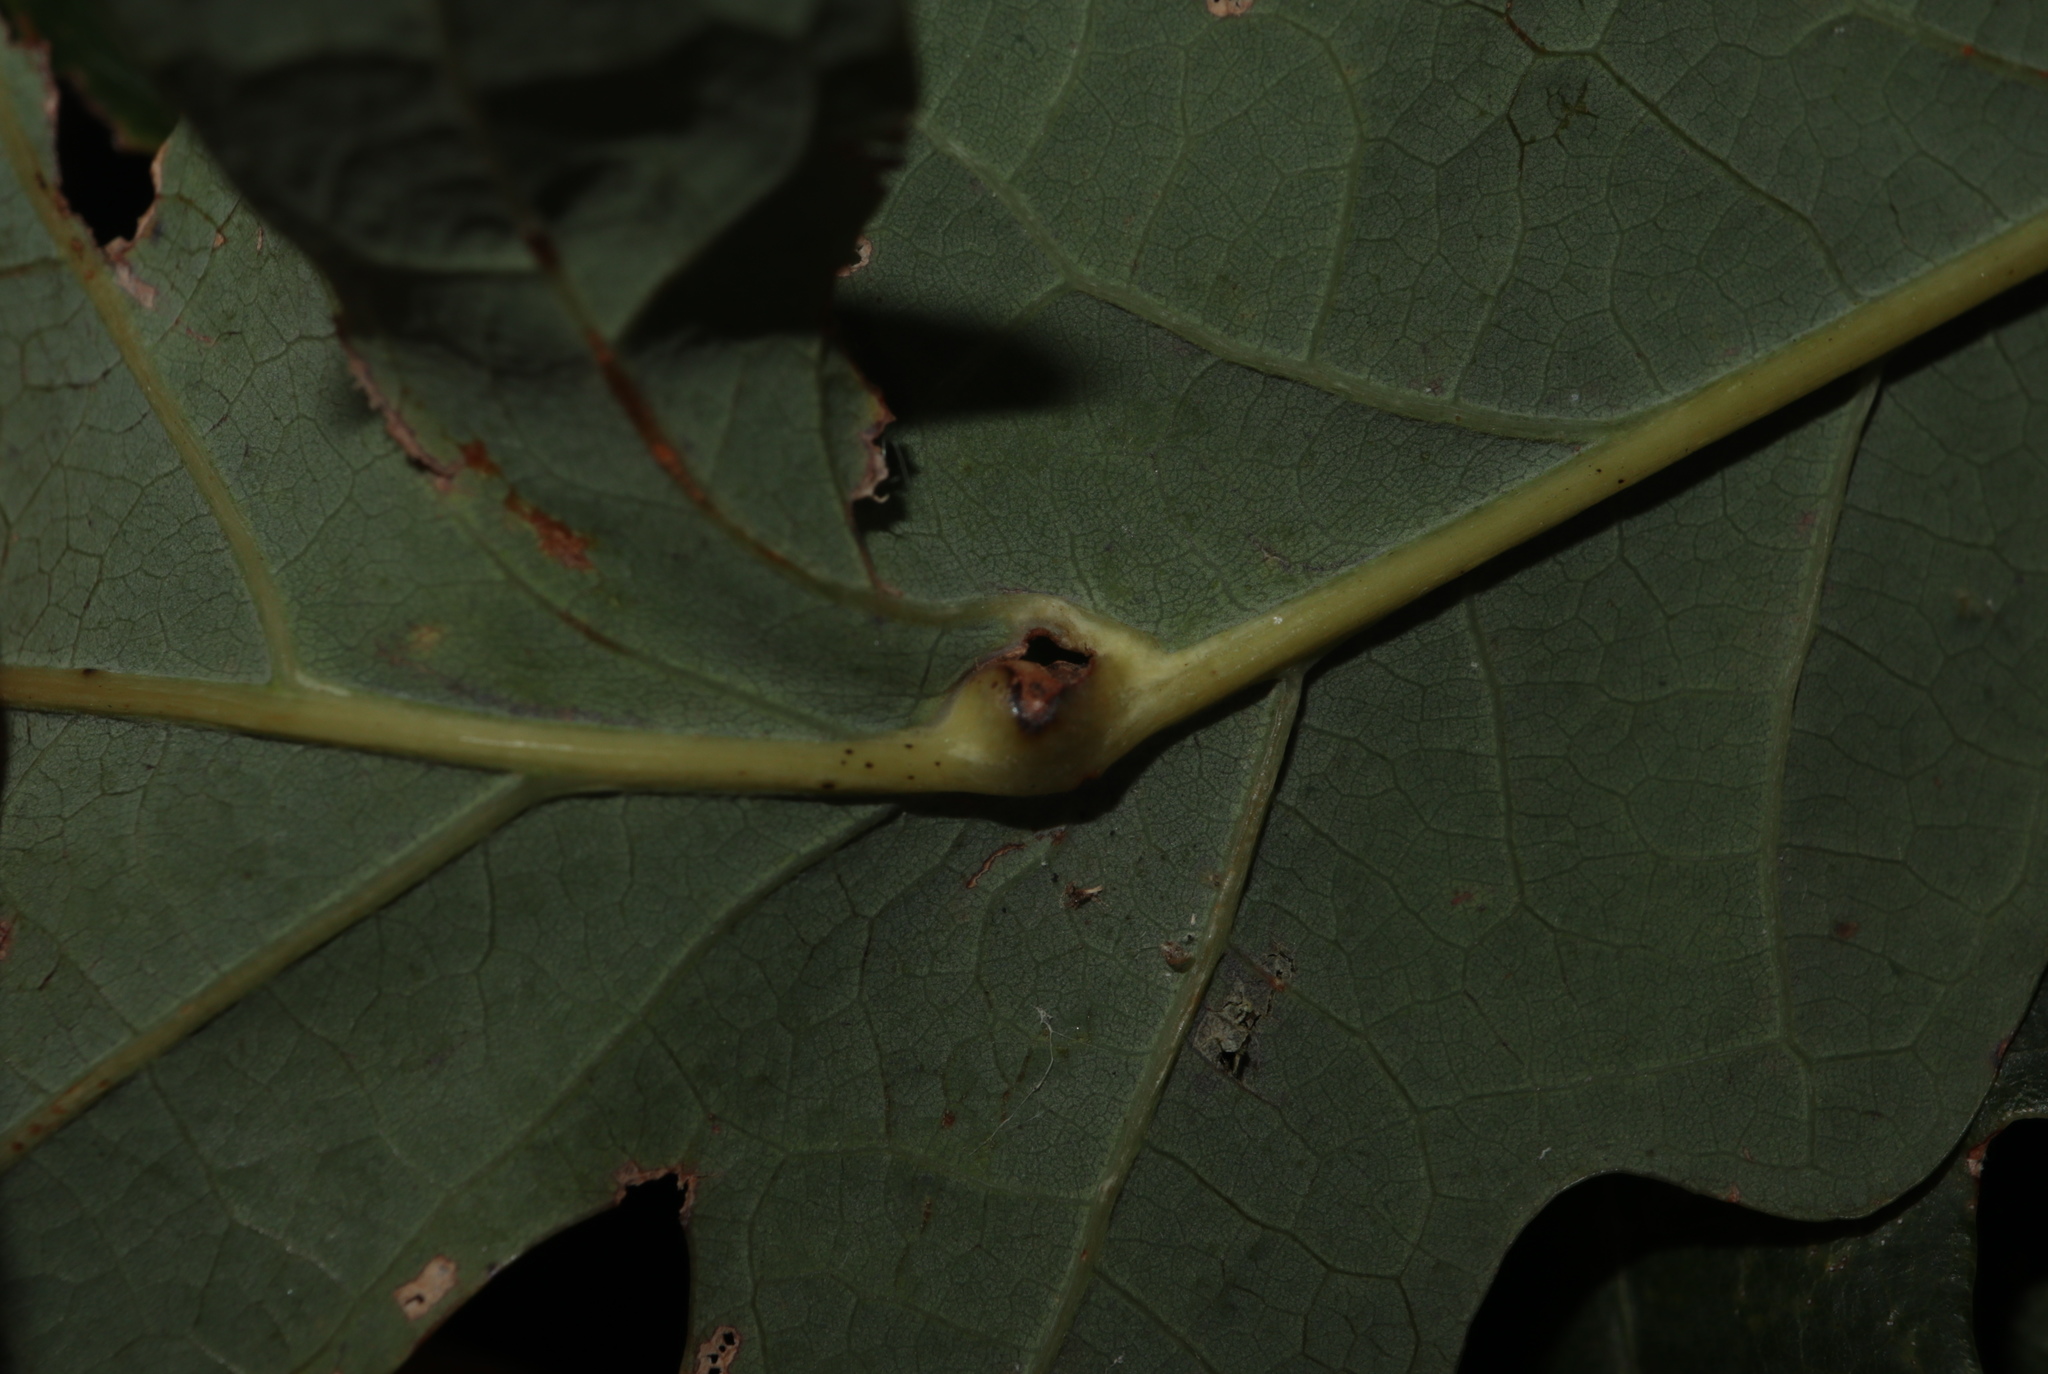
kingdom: Animalia
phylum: Arthropoda
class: Insecta
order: Hymenoptera
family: Cynipidae
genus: Andricus
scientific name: Andricus
